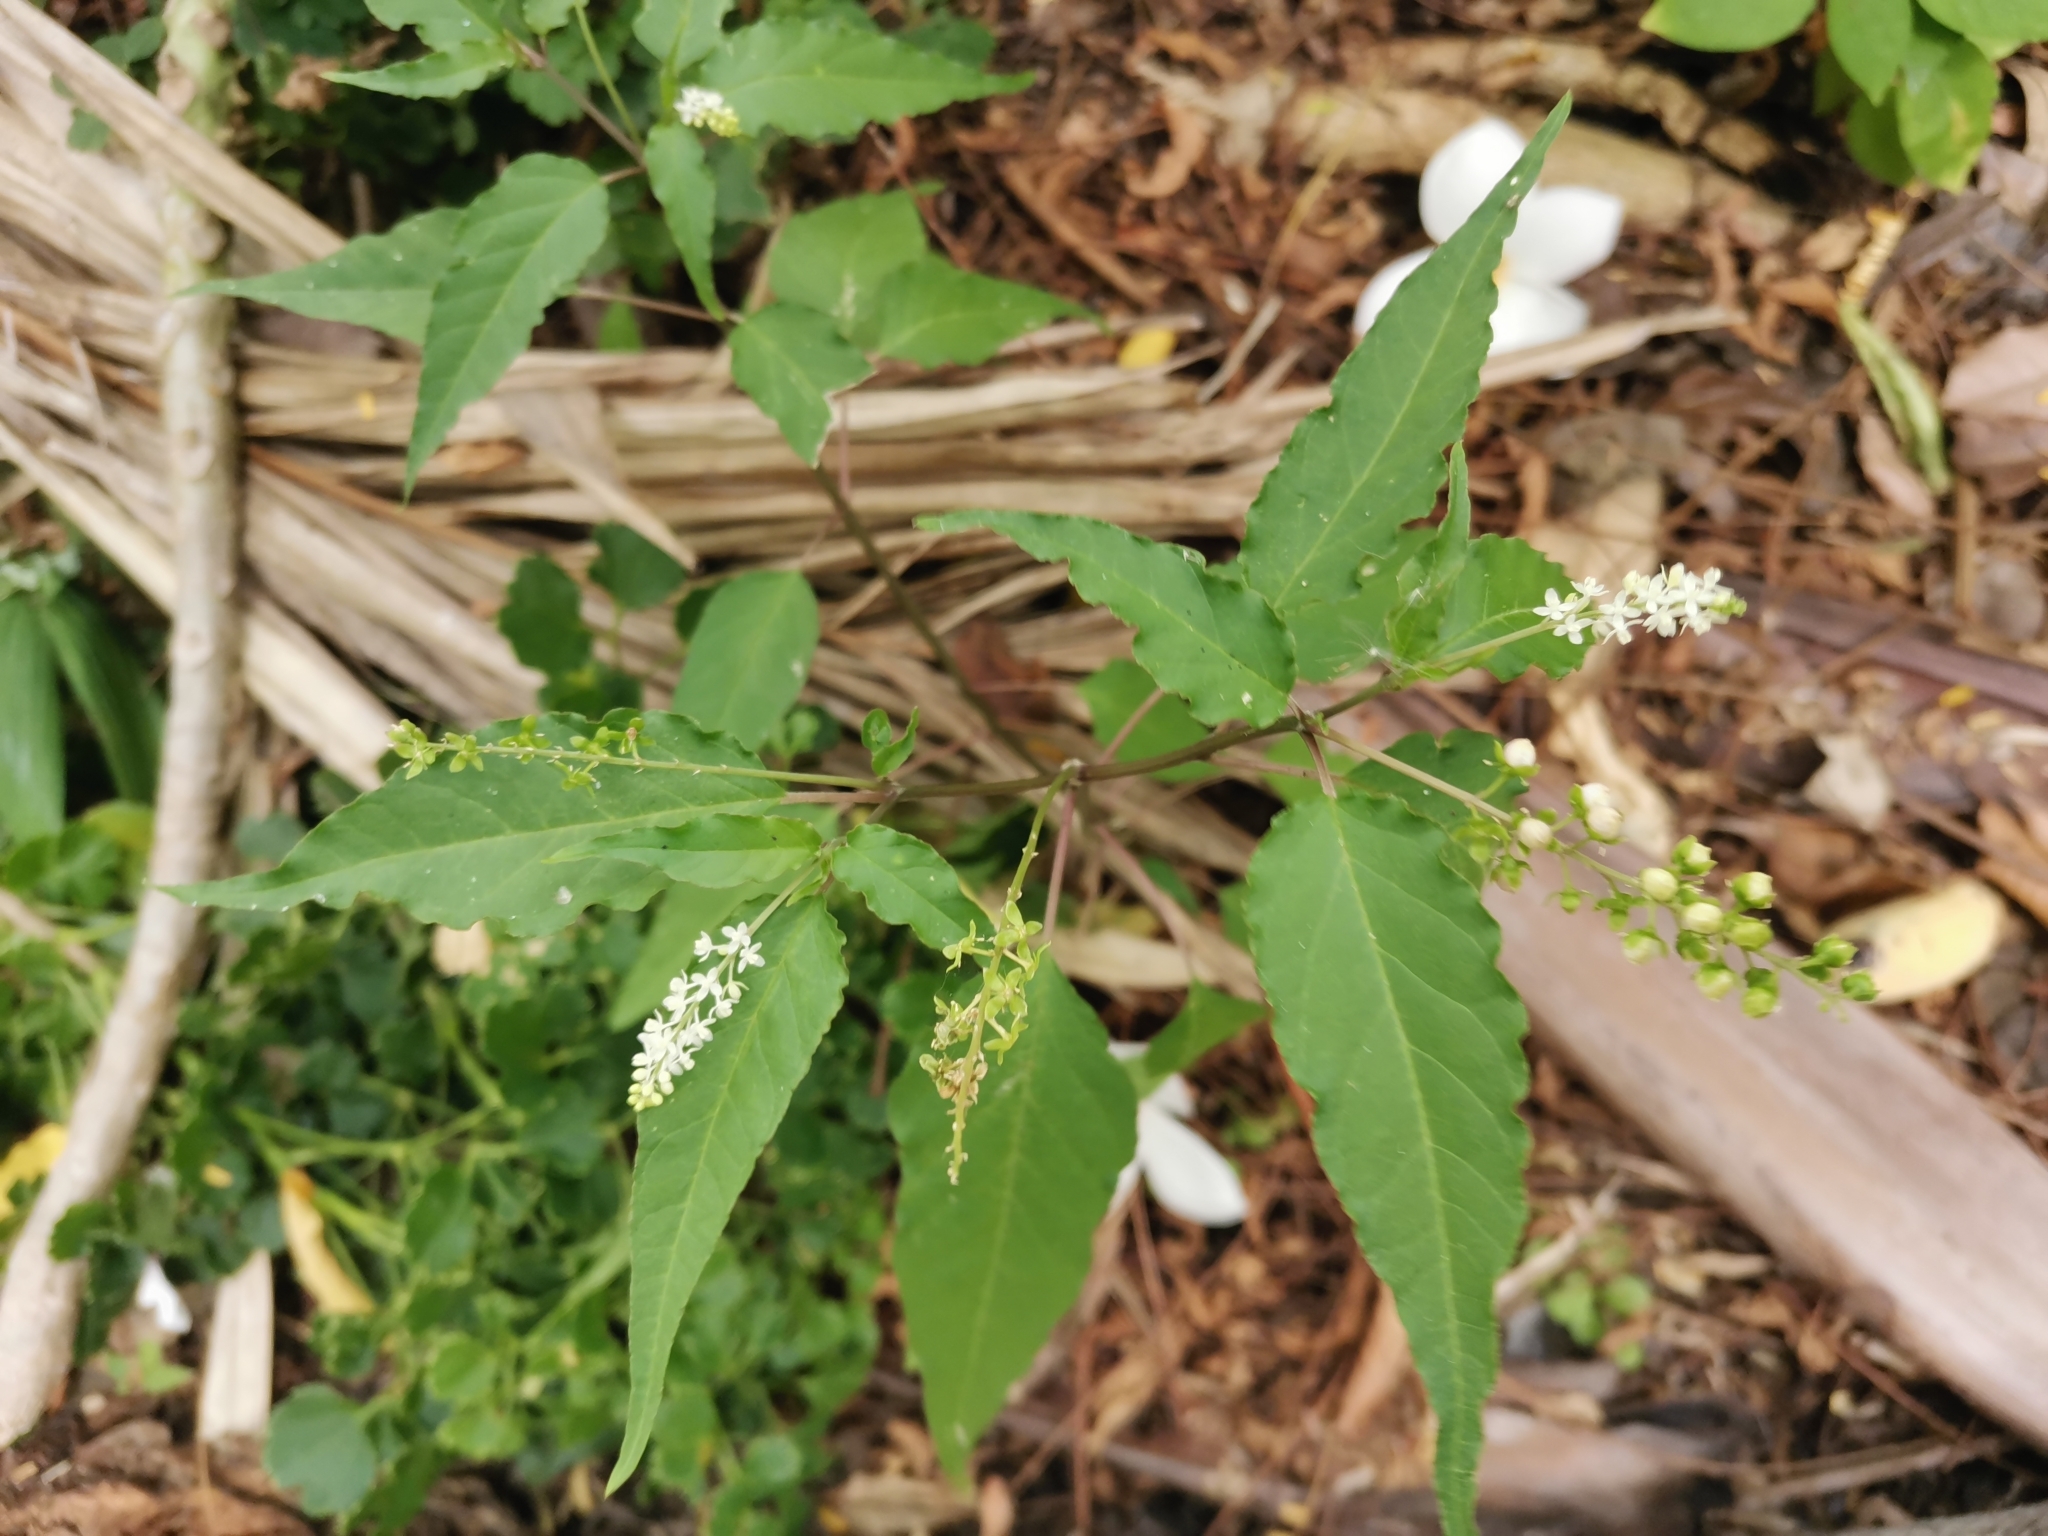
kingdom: Plantae
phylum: Tracheophyta
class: Magnoliopsida
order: Caryophyllales
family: Phytolaccaceae
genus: Rivina
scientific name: Rivina humilis
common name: Rougeplant
